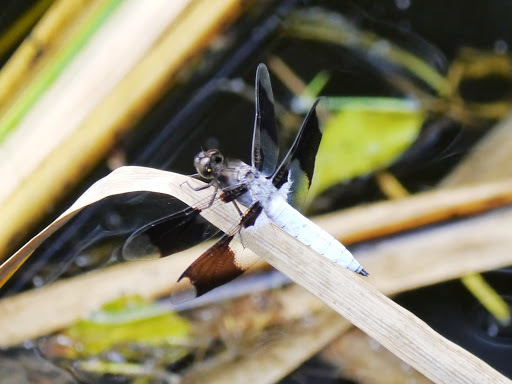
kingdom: Animalia
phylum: Arthropoda
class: Insecta
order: Odonata
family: Libellulidae
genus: Plathemis
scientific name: Plathemis lydia
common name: Common whitetail
